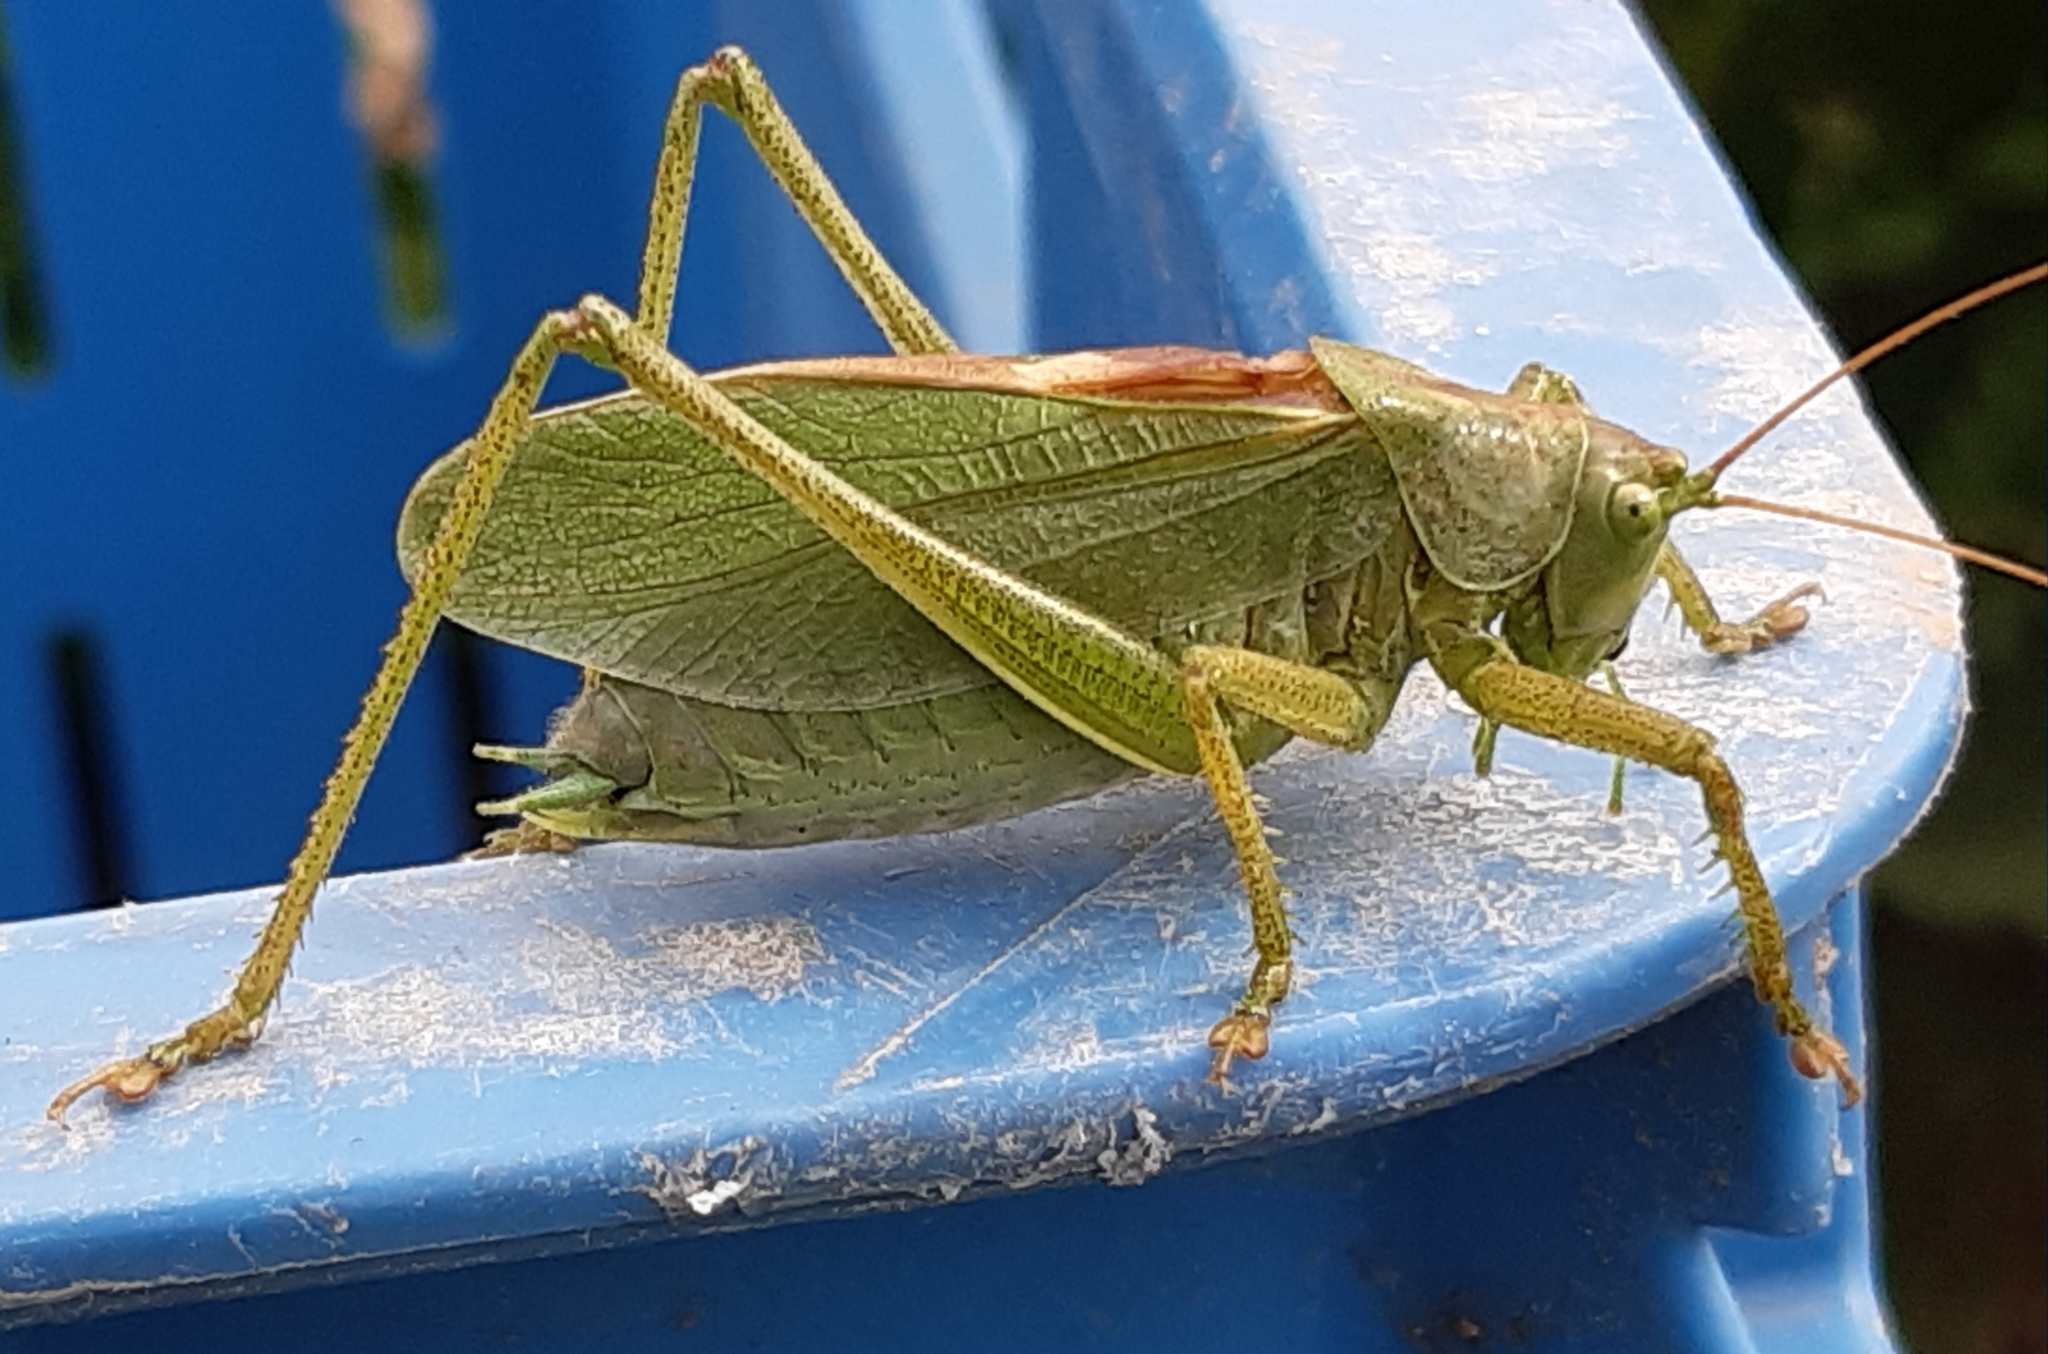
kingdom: Animalia
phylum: Arthropoda
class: Insecta
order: Orthoptera
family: Tettigoniidae
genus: Tettigonia
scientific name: Tettigonia cantans
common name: Upland green bush-cricket
